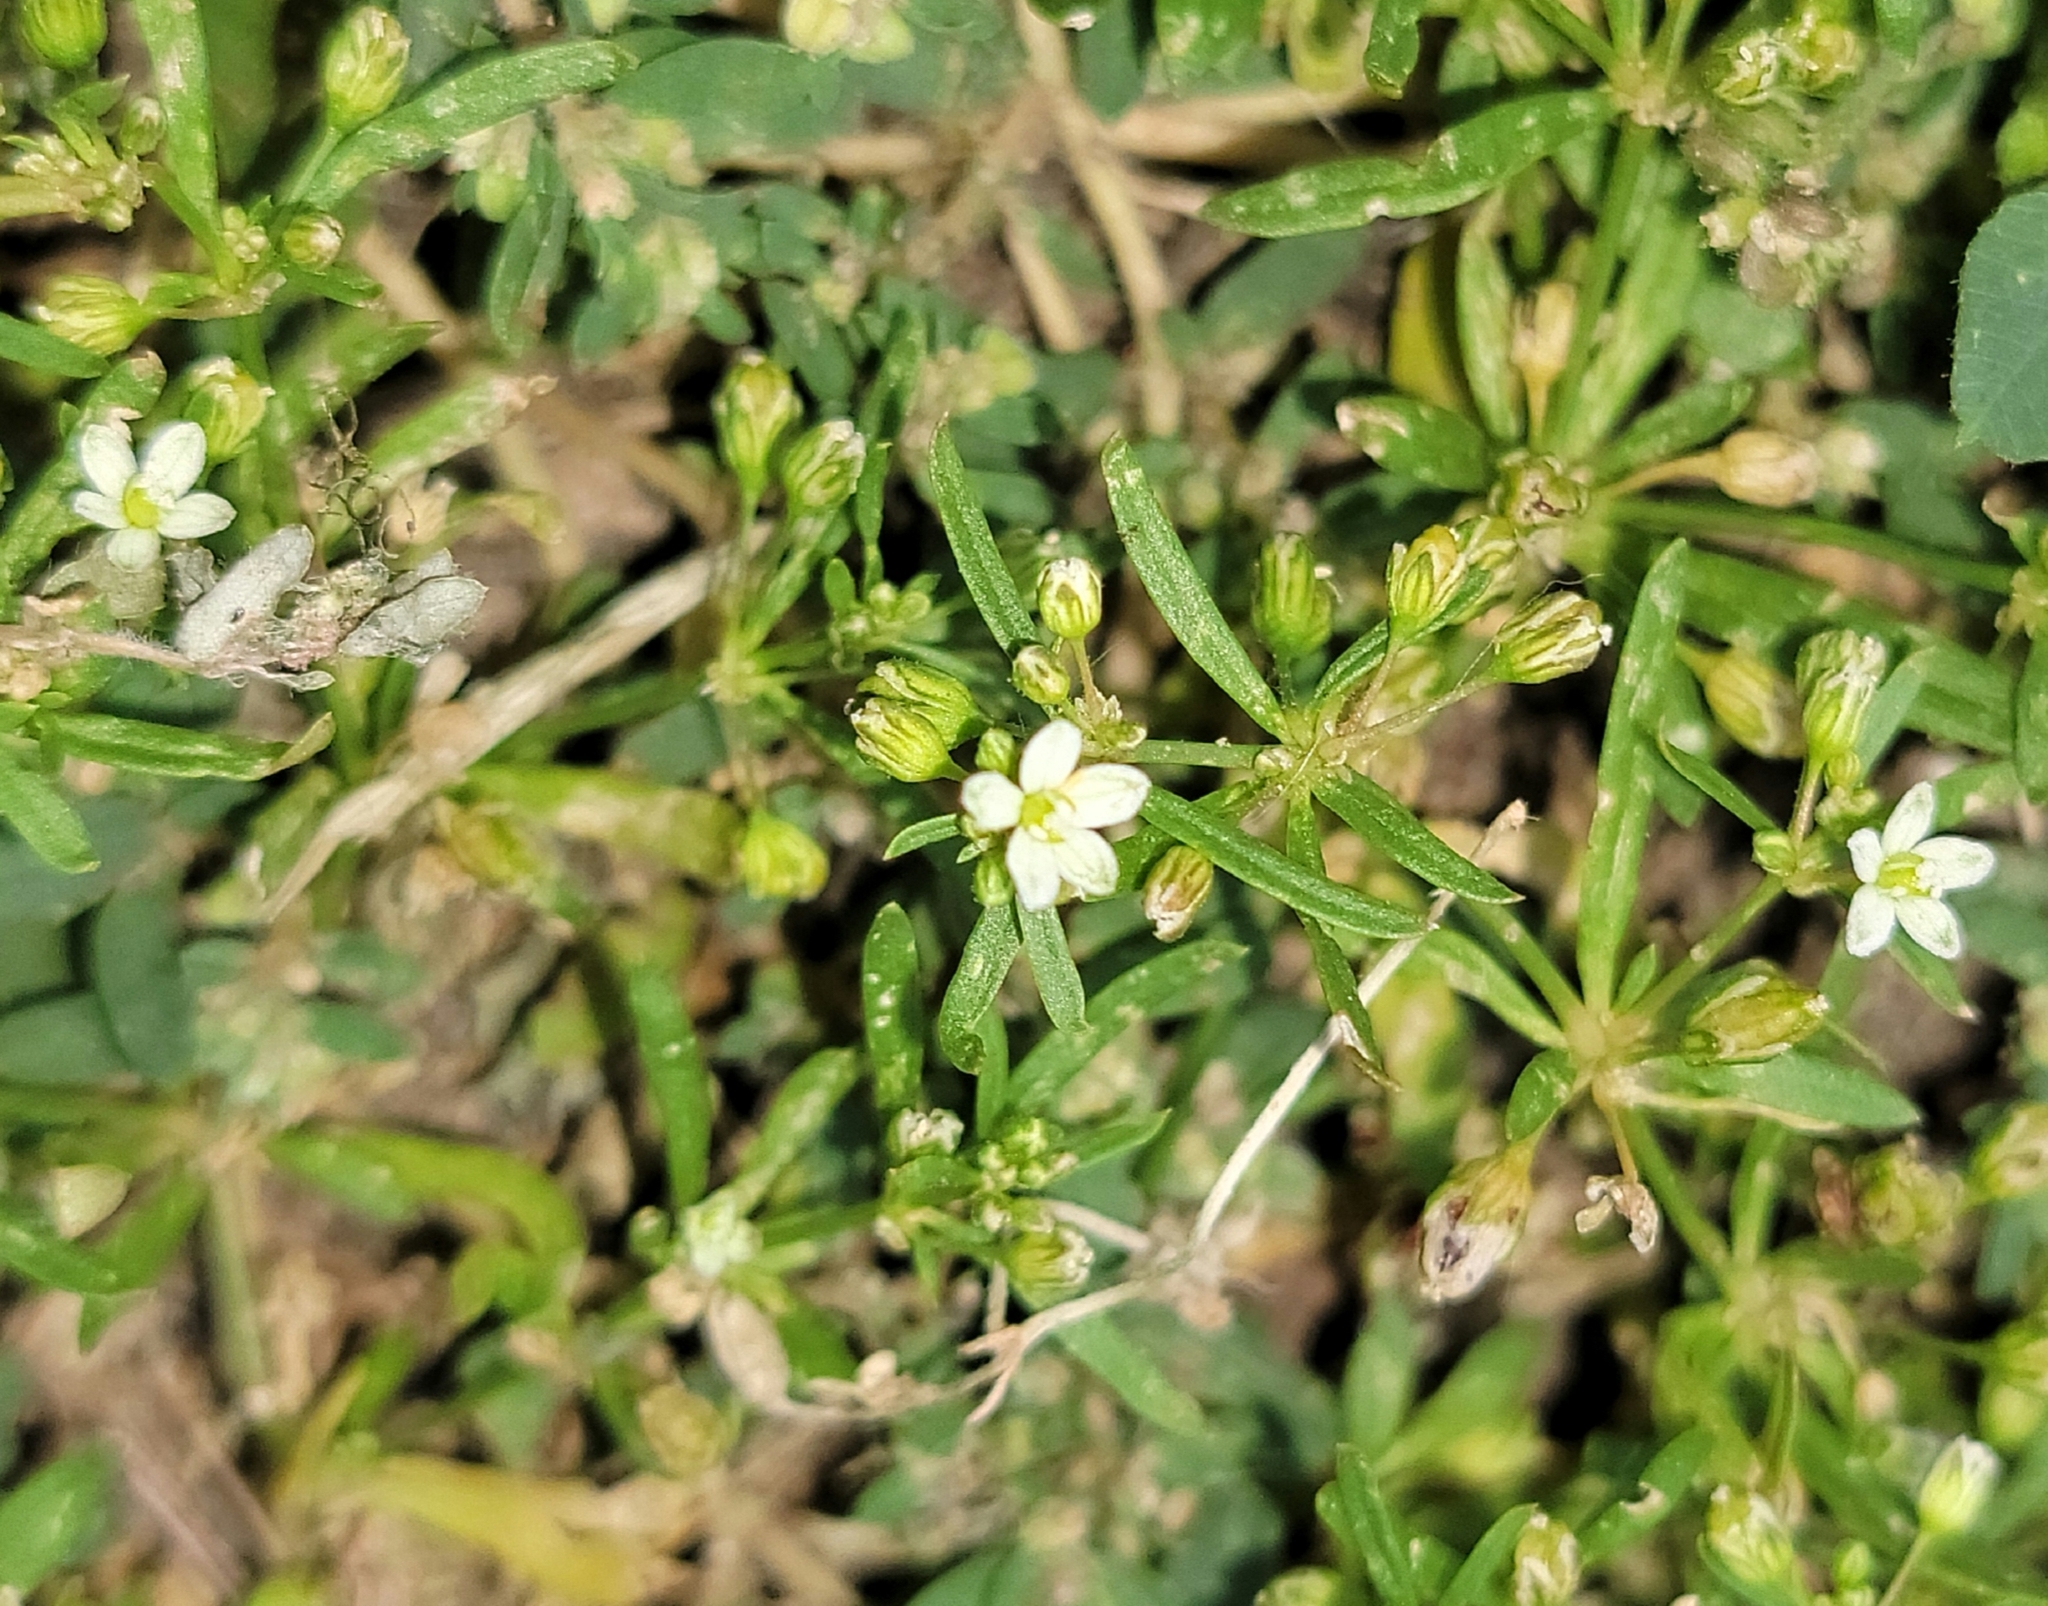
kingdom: Plantae
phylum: Tracheophyta
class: Magnoliopsida
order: Caryophyllales
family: Molluginaceae
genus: Mollugo
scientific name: Mollugo verticillata
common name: Green carpetweed
